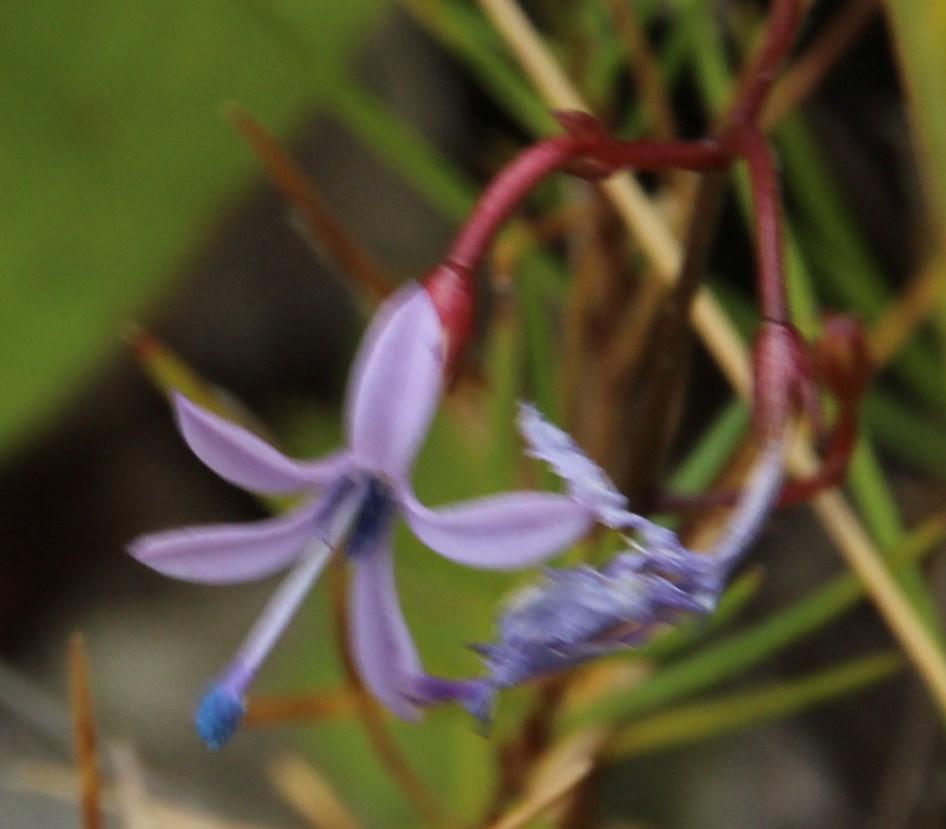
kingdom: Plantae
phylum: Tracheophyta
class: Magnoliopsida
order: Asterales
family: Campanulaceae
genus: Prismatocarpus
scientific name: Prismatocarpus diffusus
